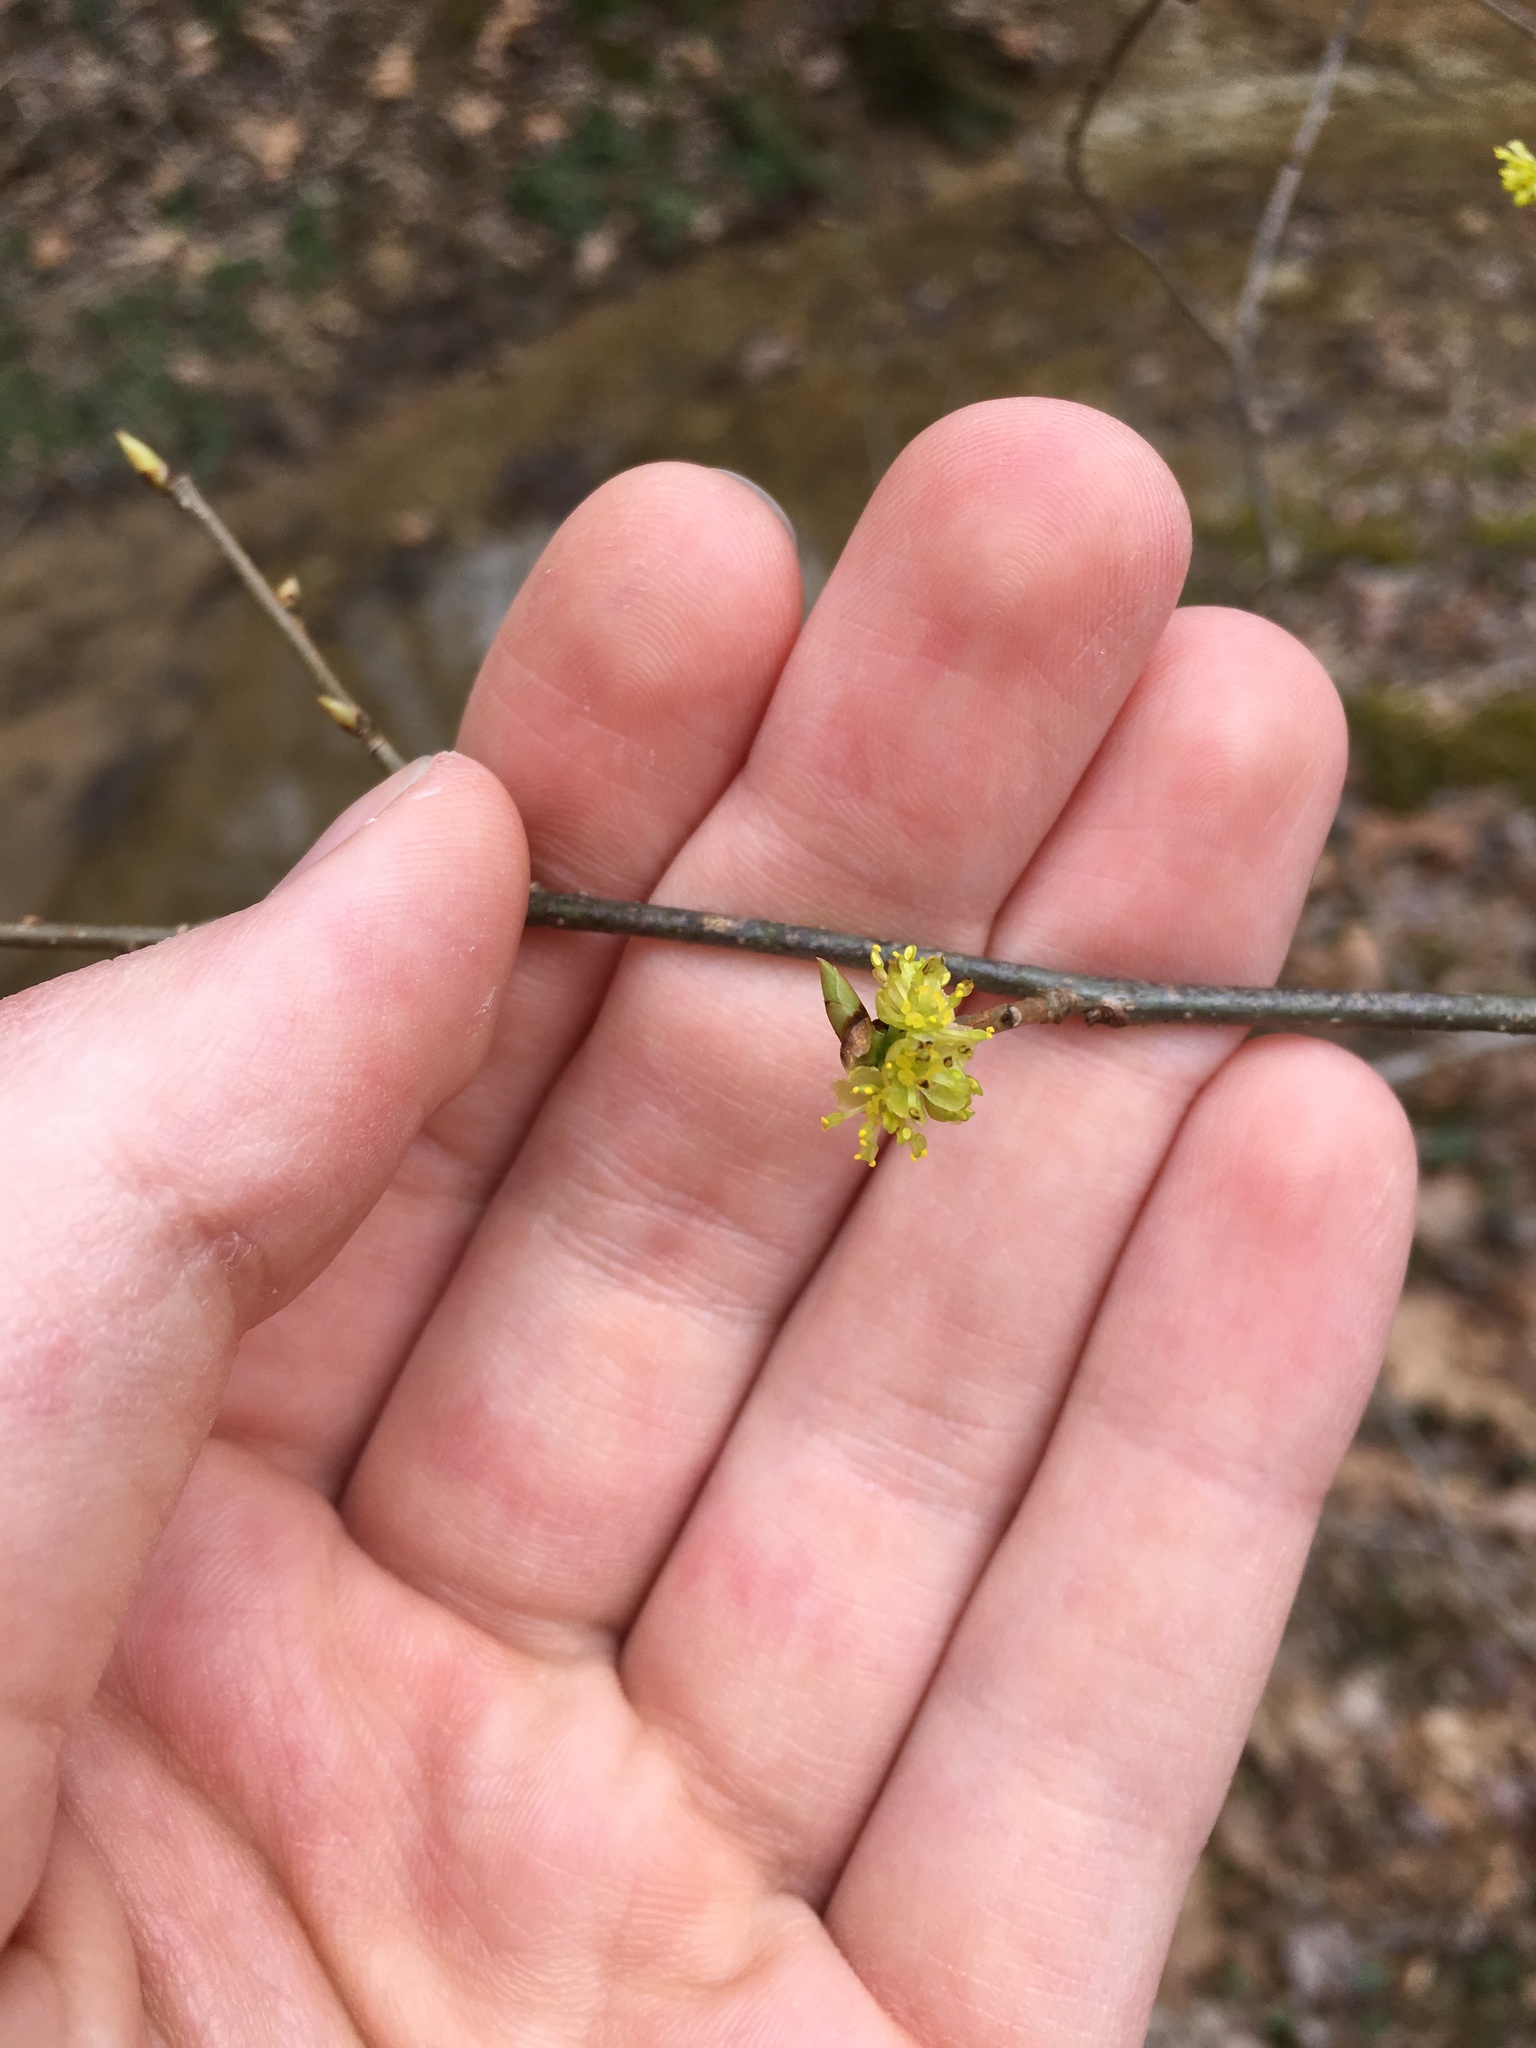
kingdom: Plantae
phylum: Tracheophyta
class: Magnoliopsida
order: Laurales
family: Lauraceae
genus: Lindera
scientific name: Lindera benzoin
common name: Spicebush
